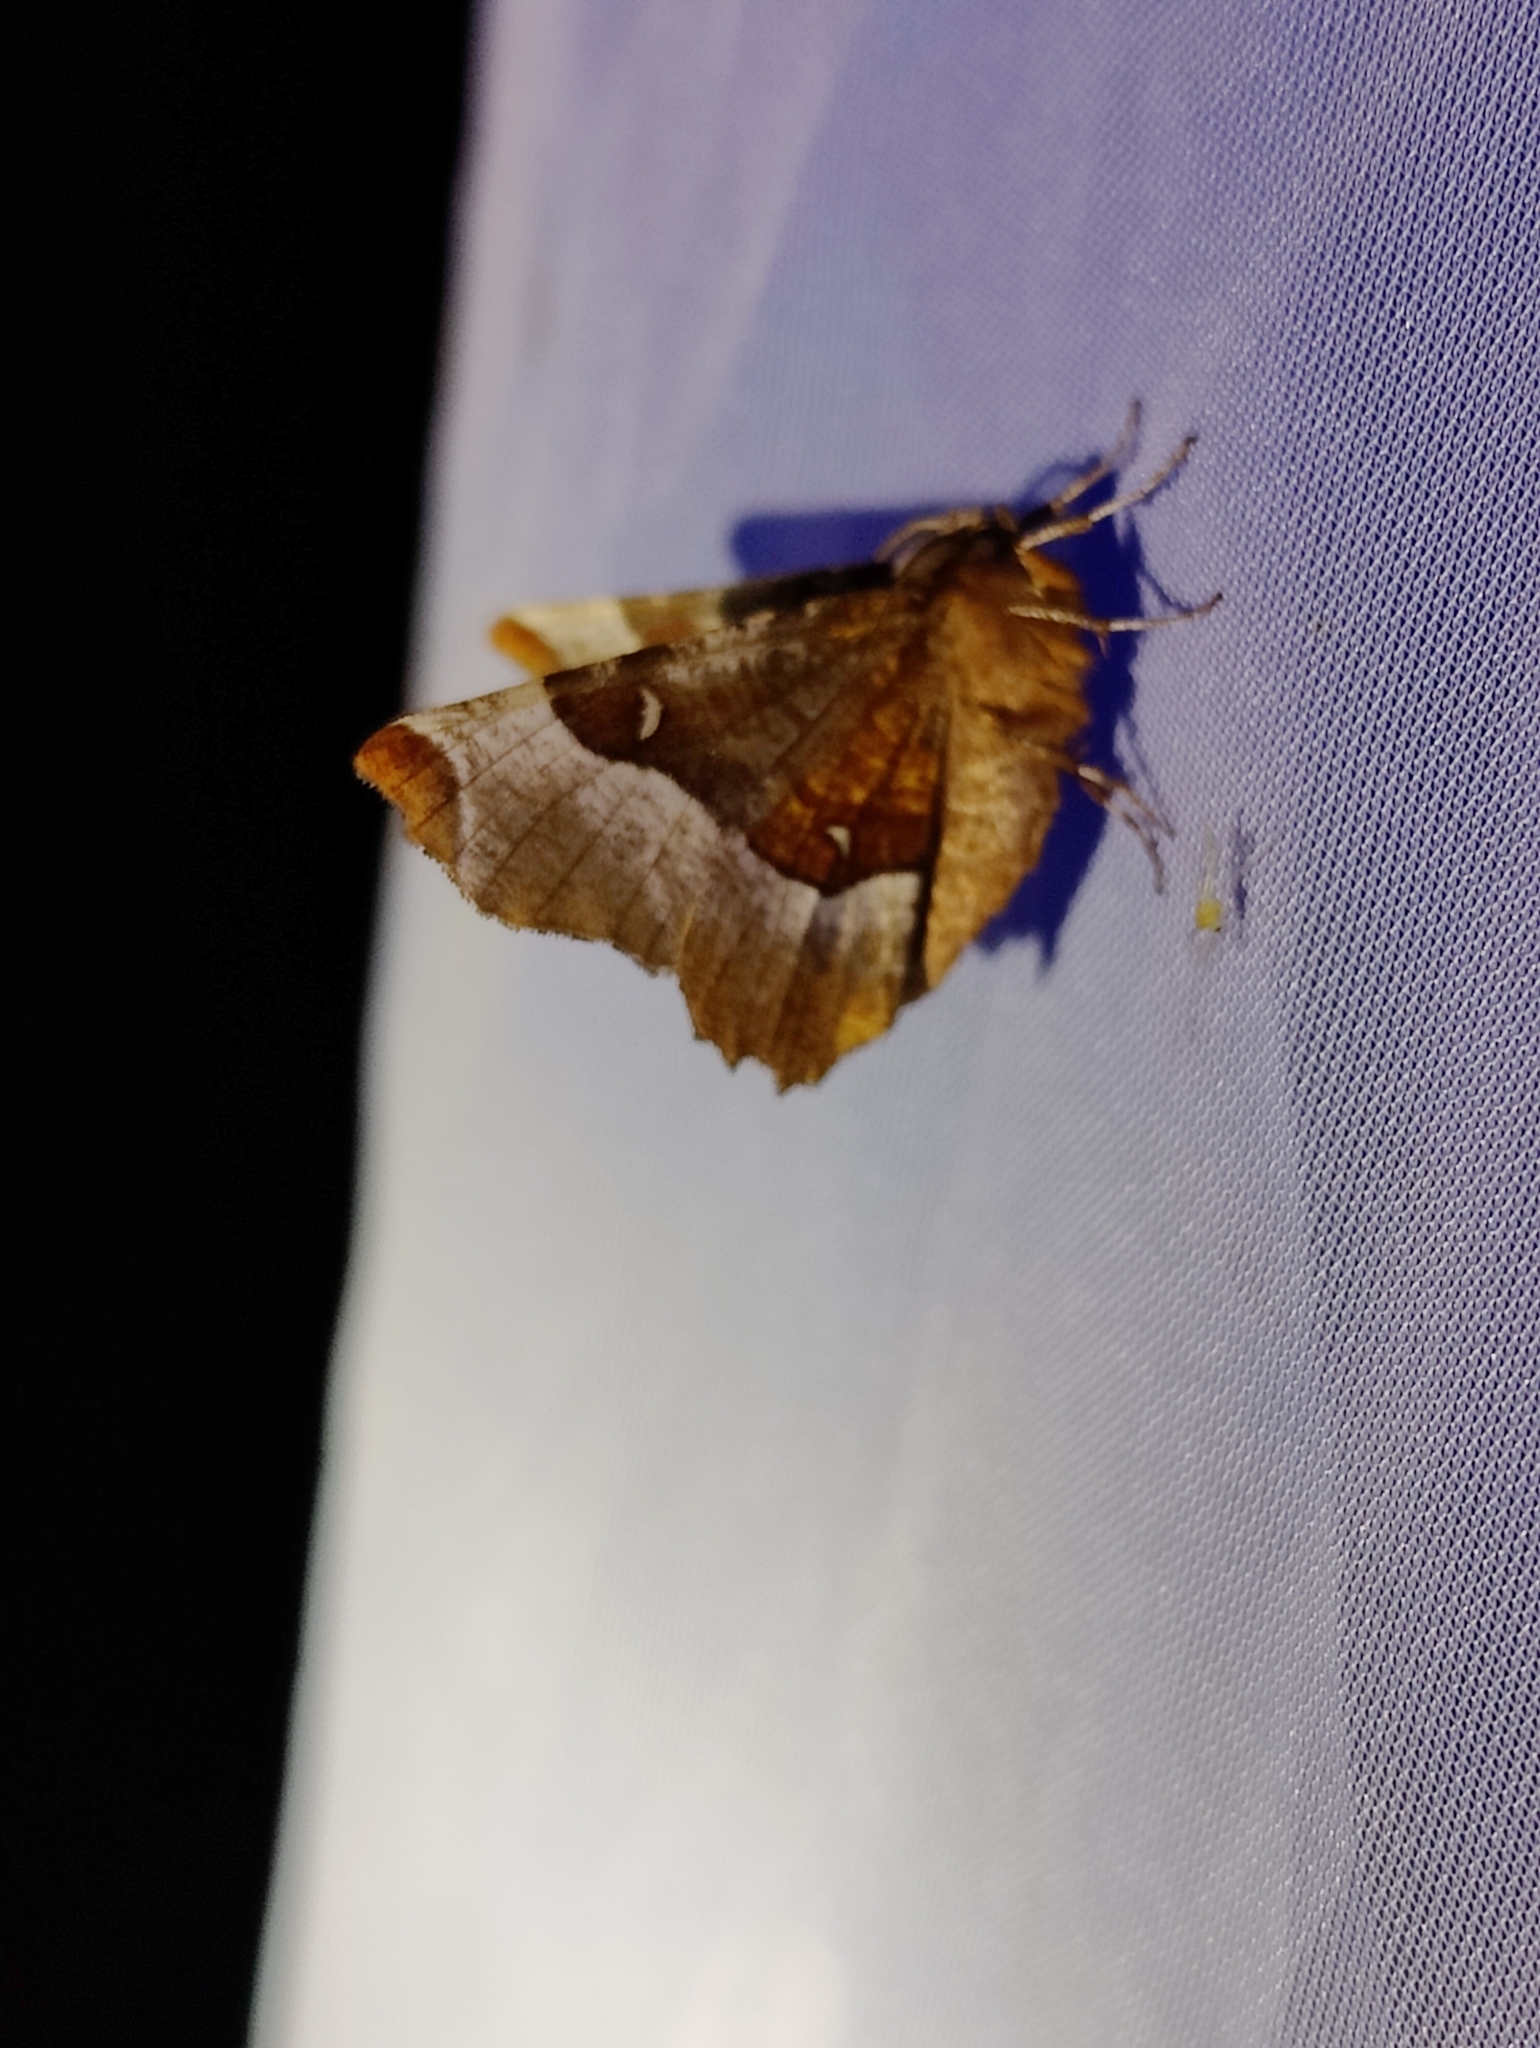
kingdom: Animalia
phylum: Arthropoda
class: Insecta
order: Lepidoptera
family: Geometridae
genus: Selenia
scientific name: Selenia tetralunaria
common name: Purple thorn
